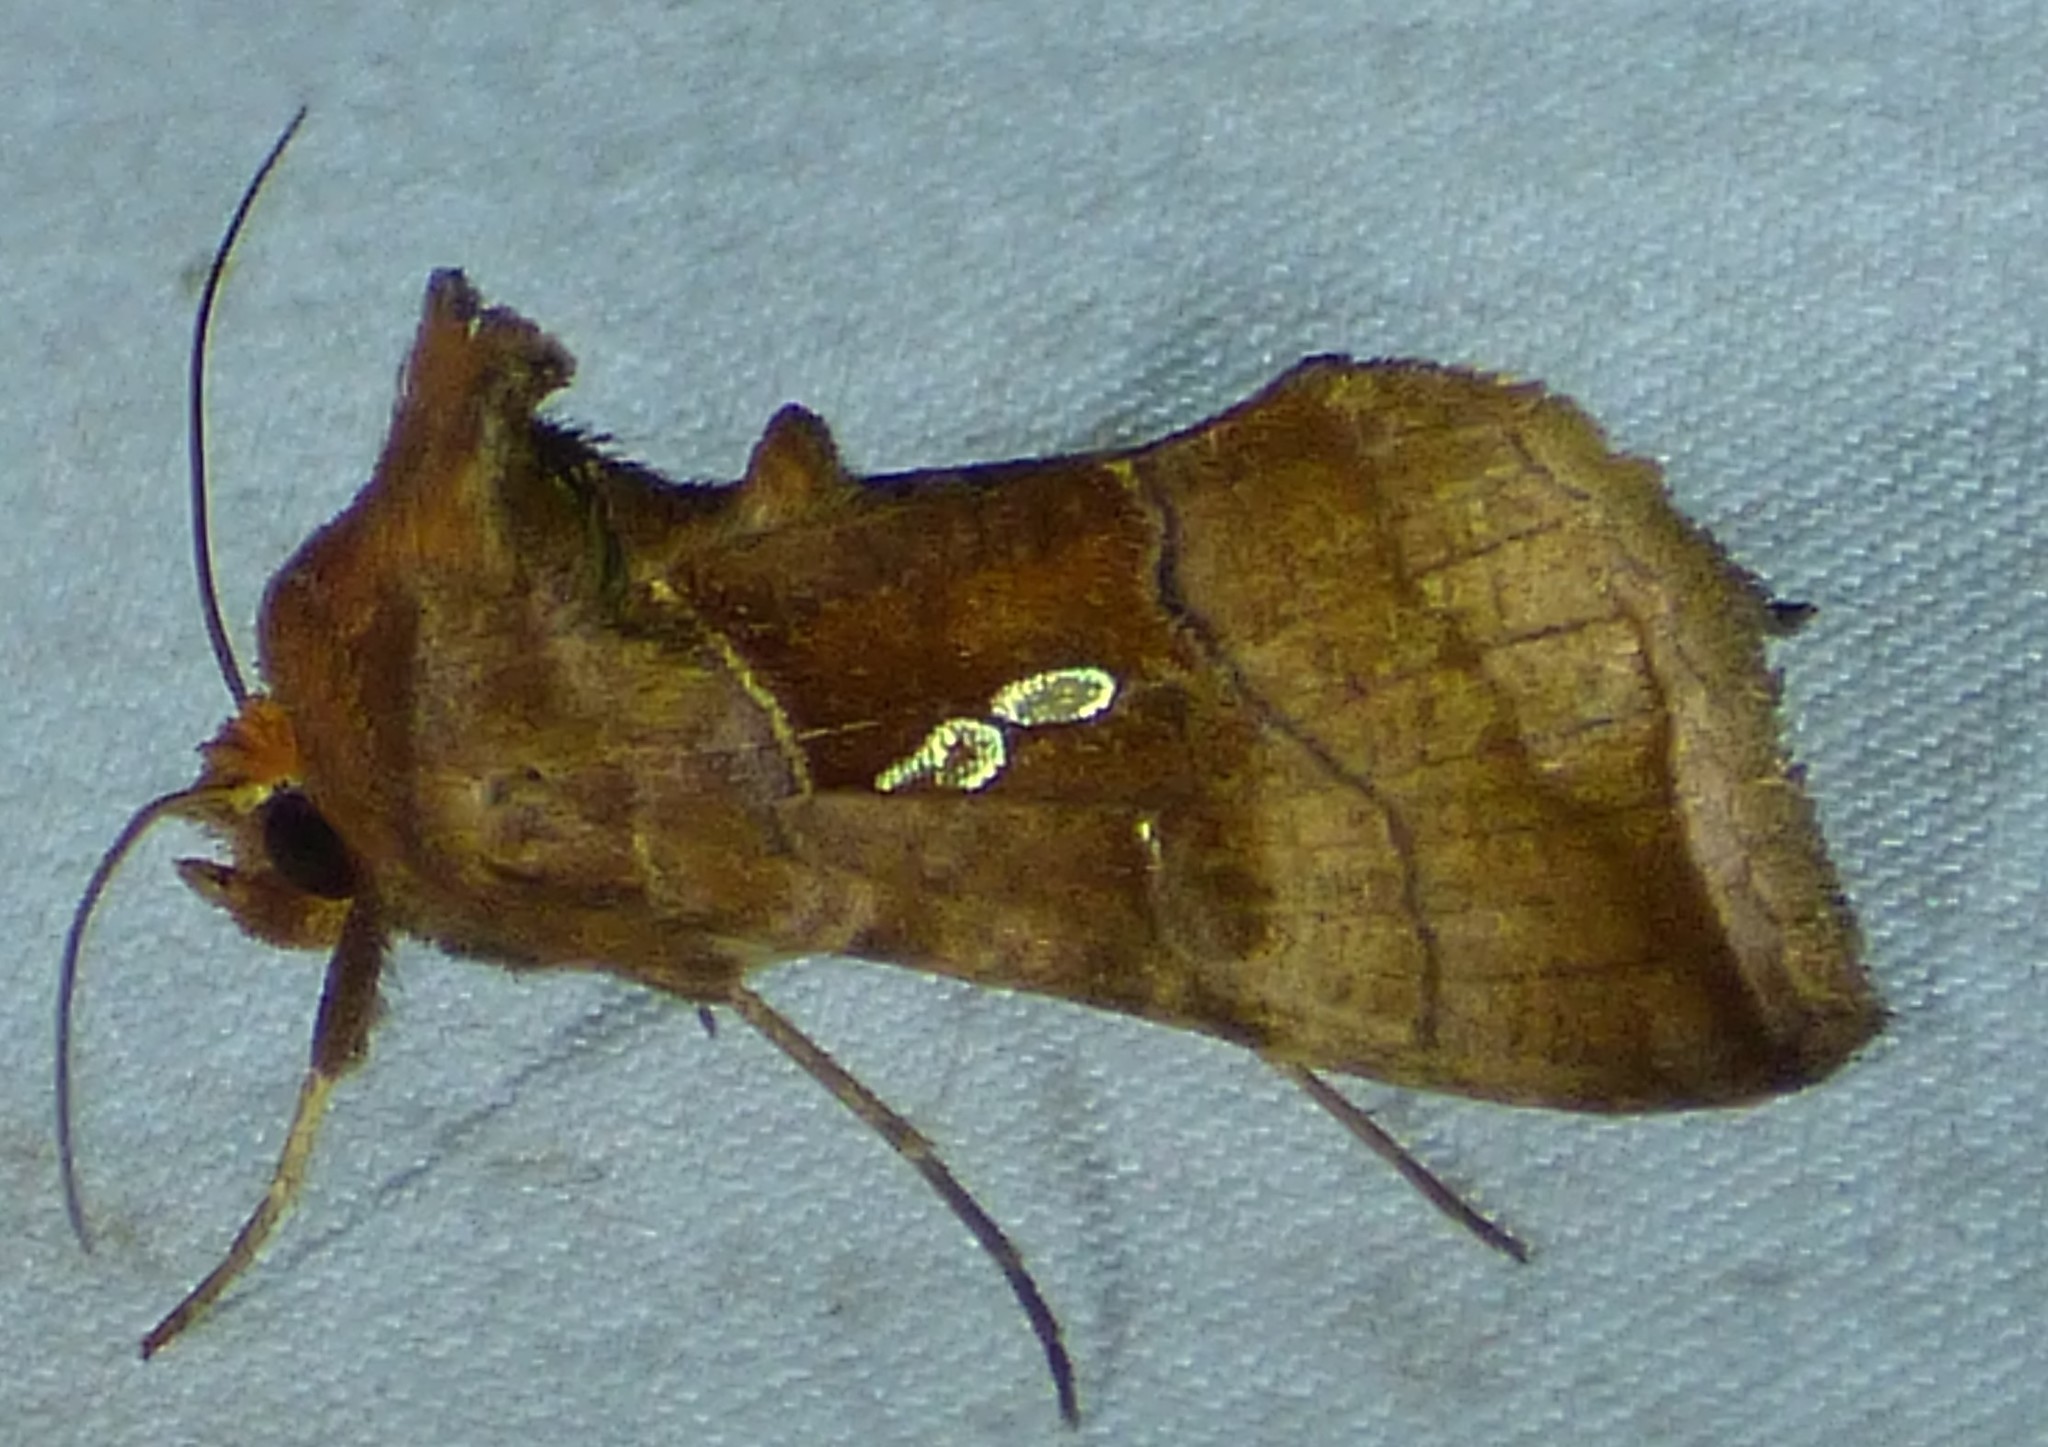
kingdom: Animalia
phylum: Arthropoda
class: Insecta
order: Lepidoptera
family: Noctuidae
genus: Enigmogramma
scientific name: Enigmogramma basigera
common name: Pink-washed looper moth
